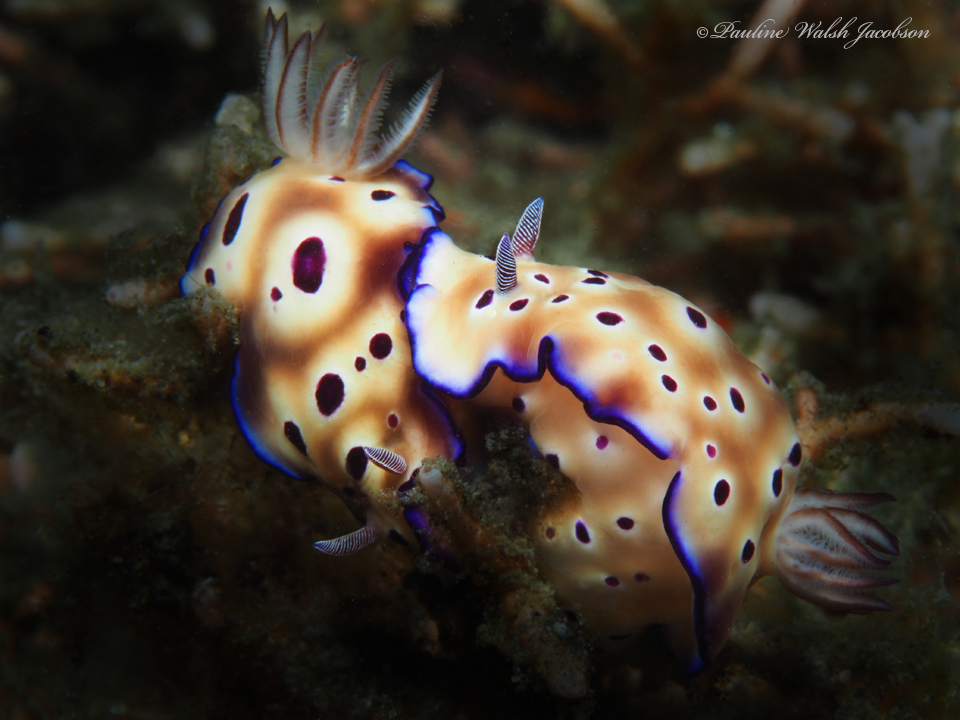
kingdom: Animalia
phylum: Mollusca
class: Gastropoda
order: Nudibranchia
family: Chromodorididae
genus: Hypselodoris
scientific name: Hypselodoris tryoni
